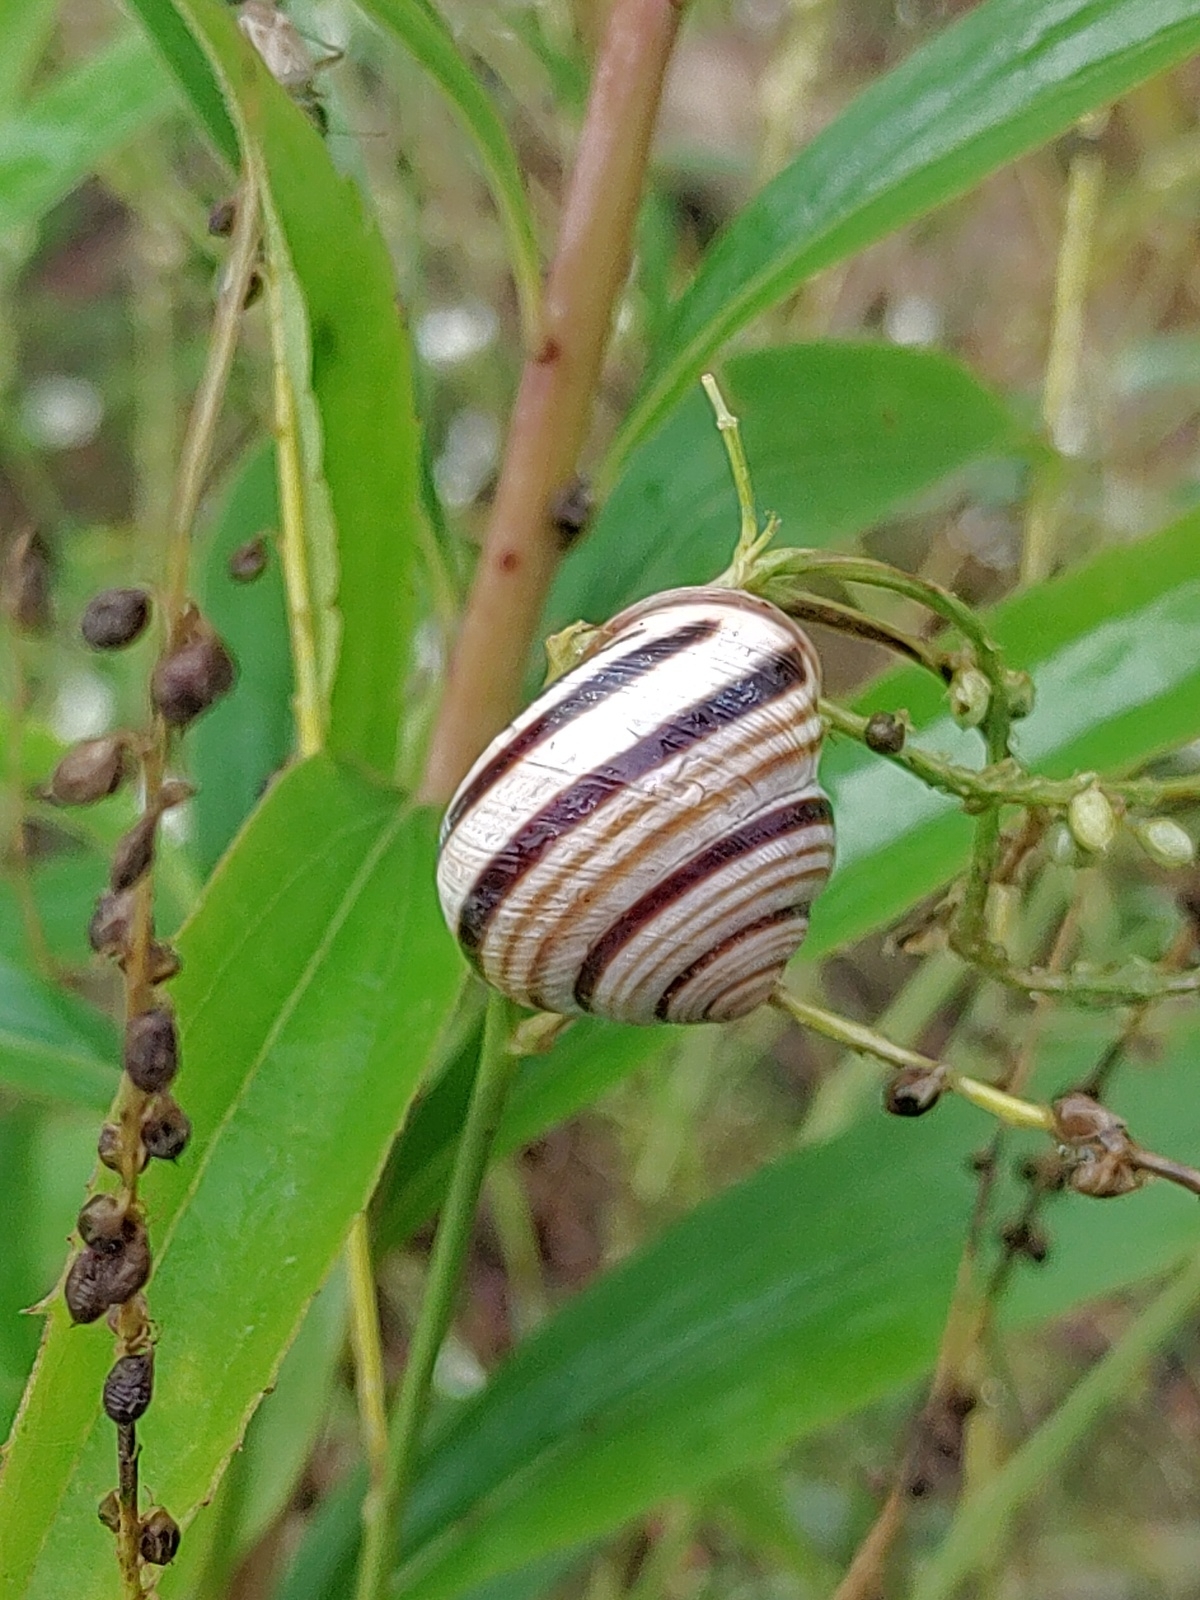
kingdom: Animalia
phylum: Mollusca
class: Gastropoda
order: Stylommatophora
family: Helicidae
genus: Caucasotachea
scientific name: Caucasotachea vindobonensis
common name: European helicid land snail
